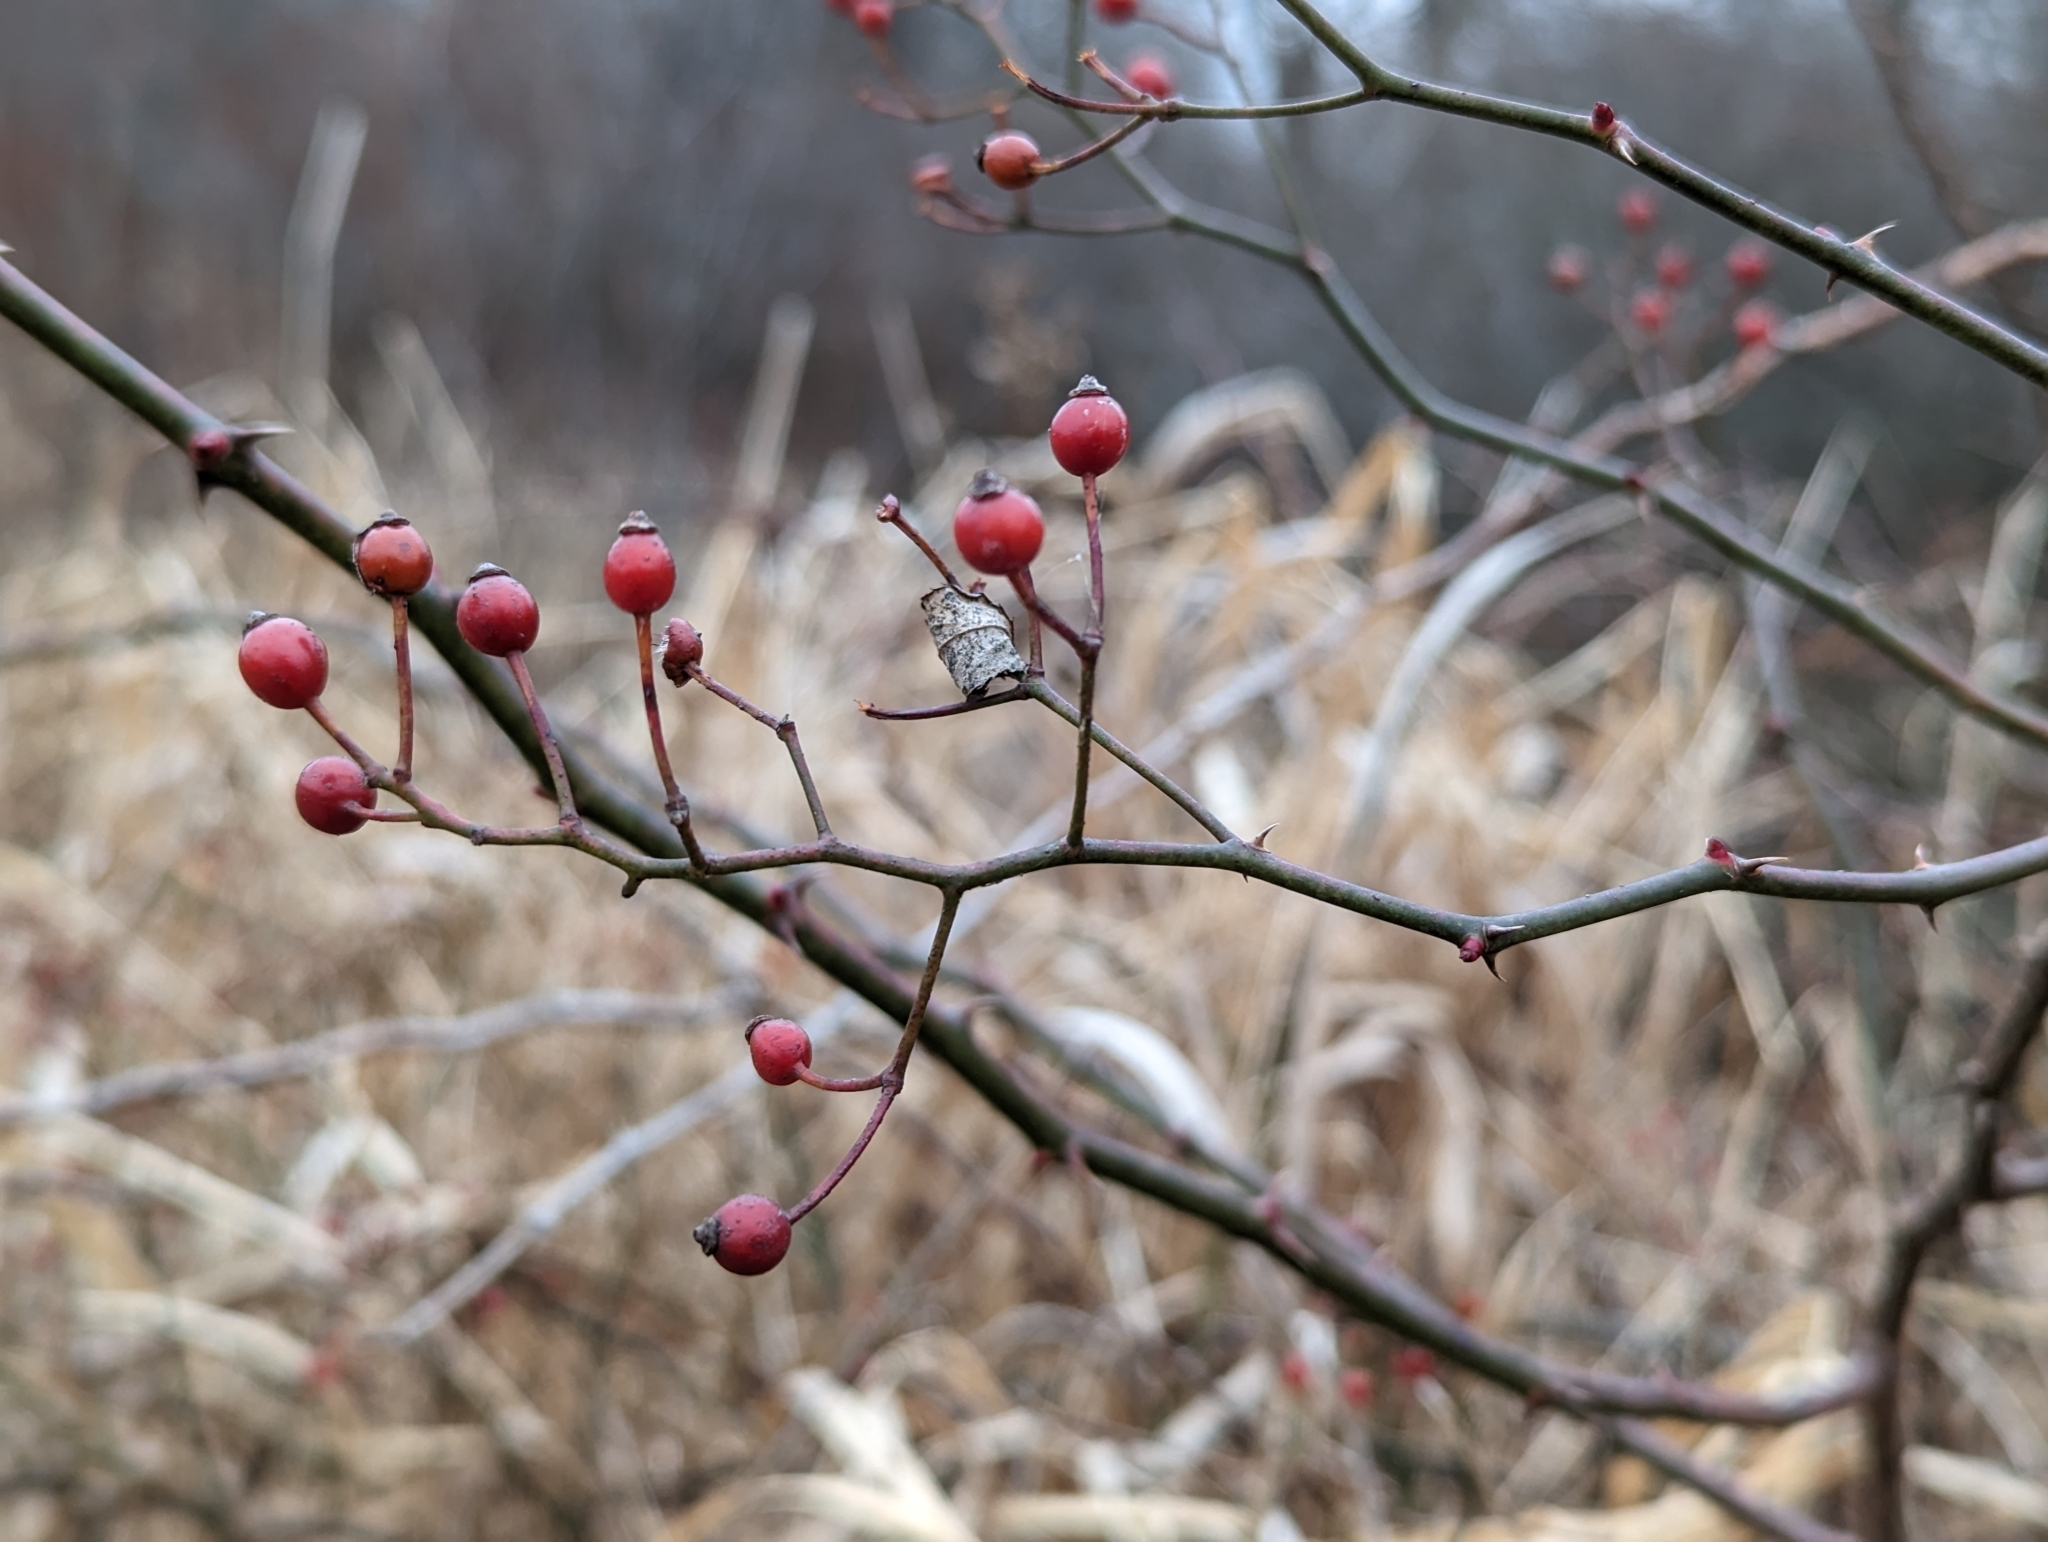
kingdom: Plantae
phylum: Tracheophyta
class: Magnoliopsida
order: Rosales
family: Rosaceae
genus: Rosa
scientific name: Rosa multiflora
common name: Multiflora rose
